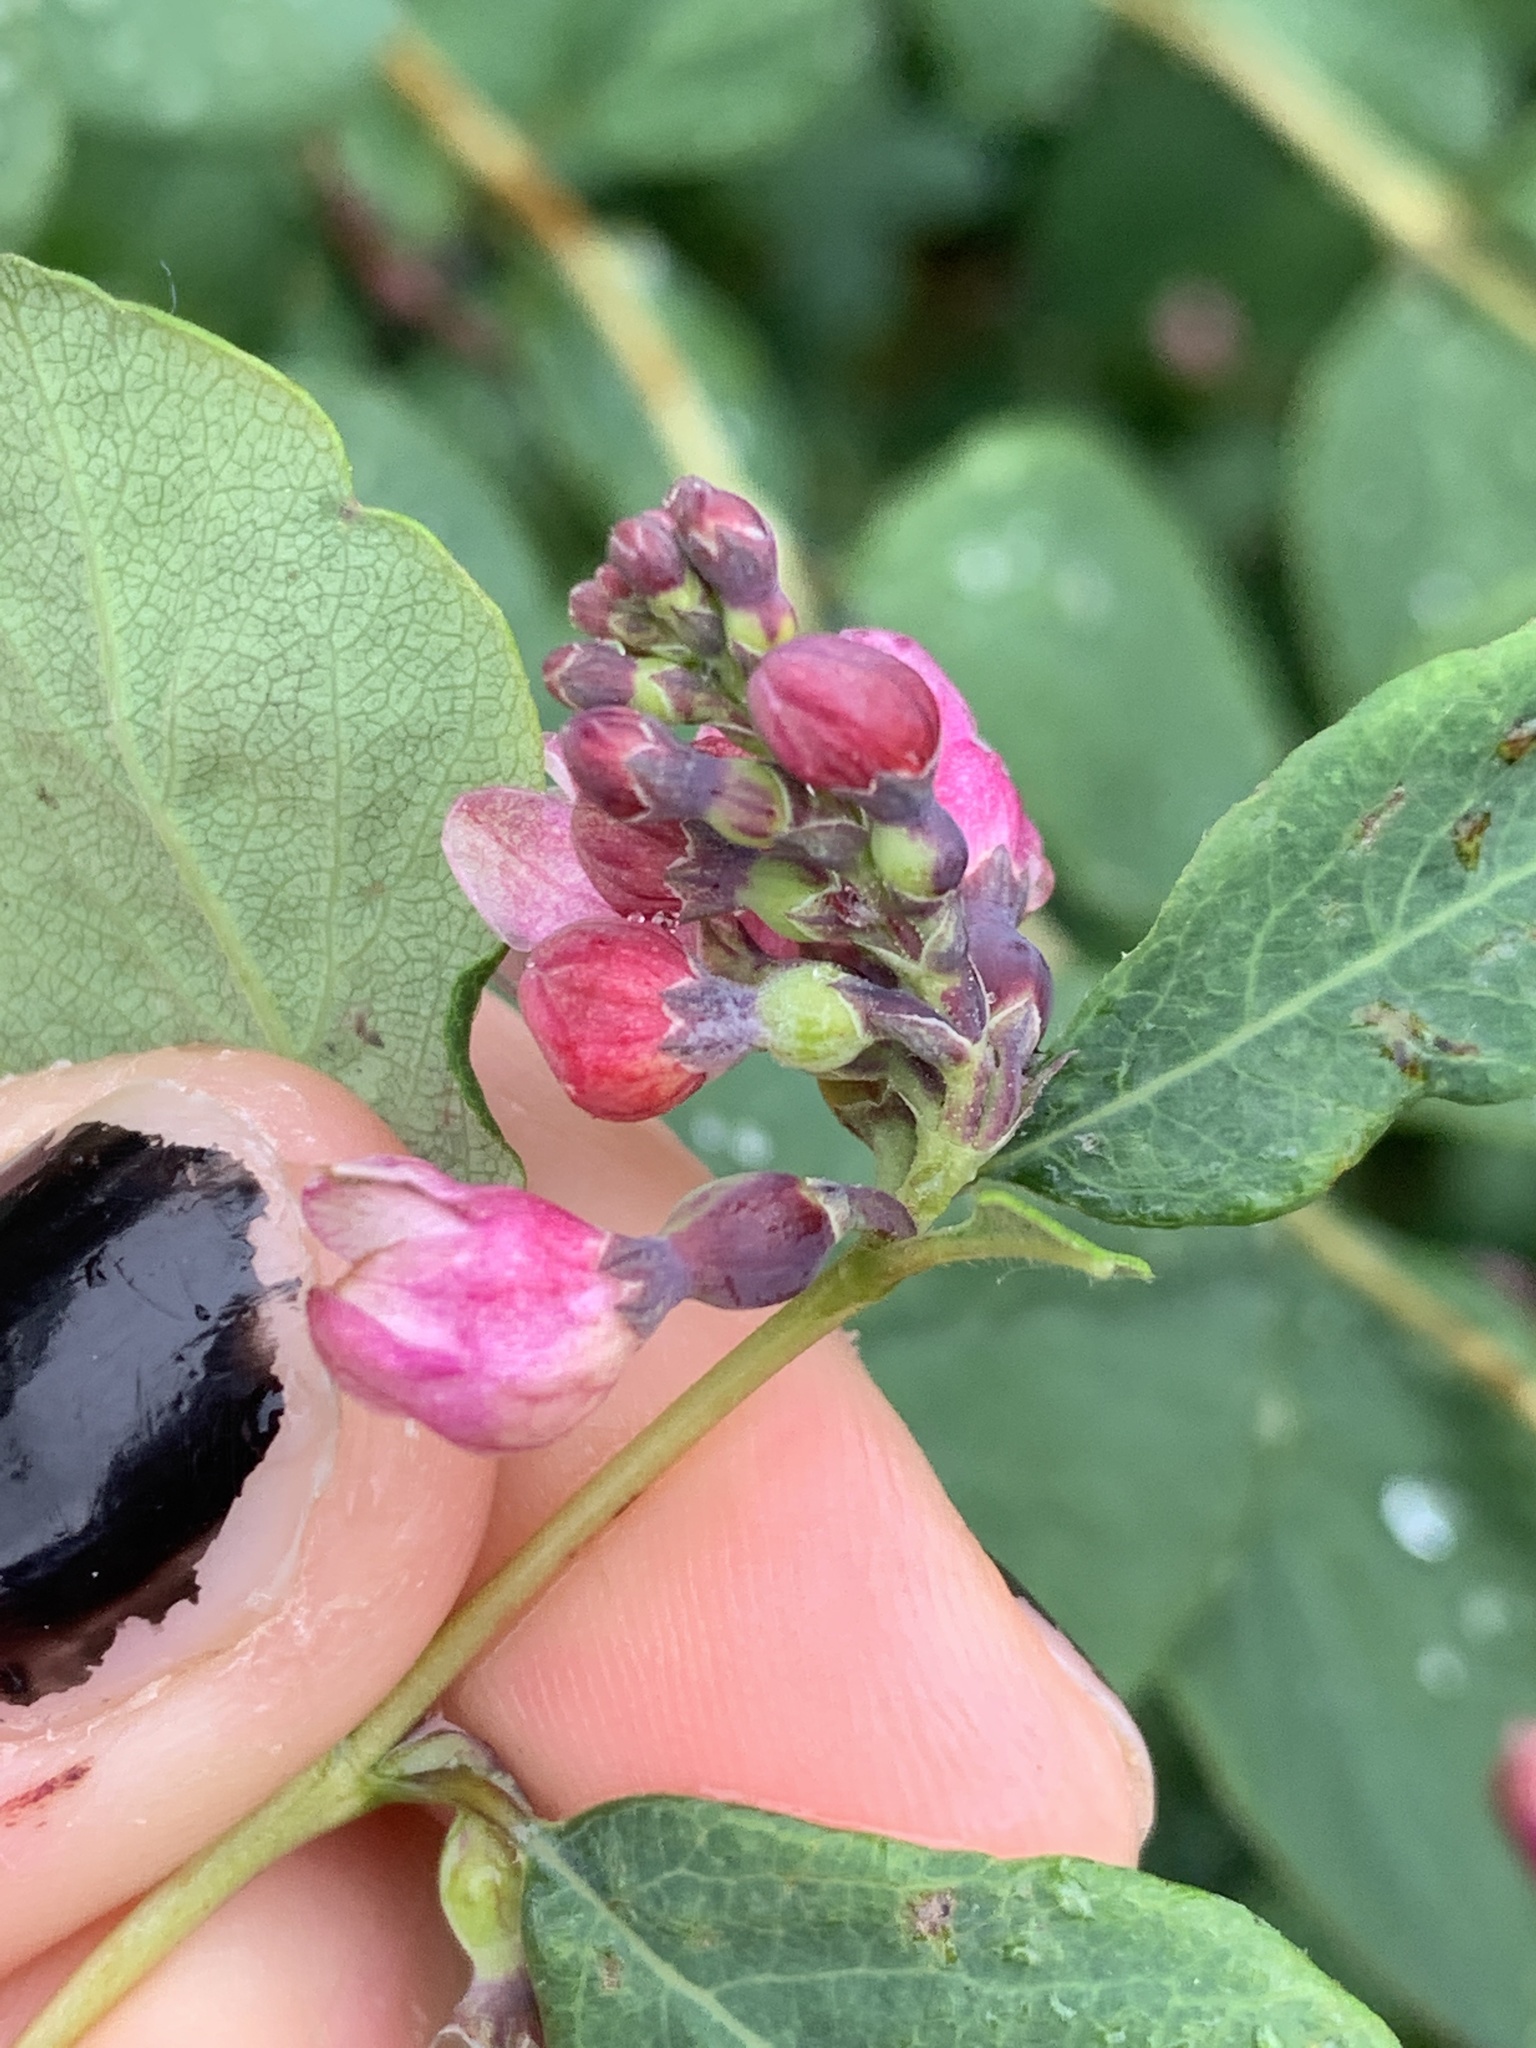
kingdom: Plantae
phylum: Tracheophyta
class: Magnoliopsida
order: Dipsacales
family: Caprifoliaceae
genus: Symphoricarpos
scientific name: Symphoricarpos albus
